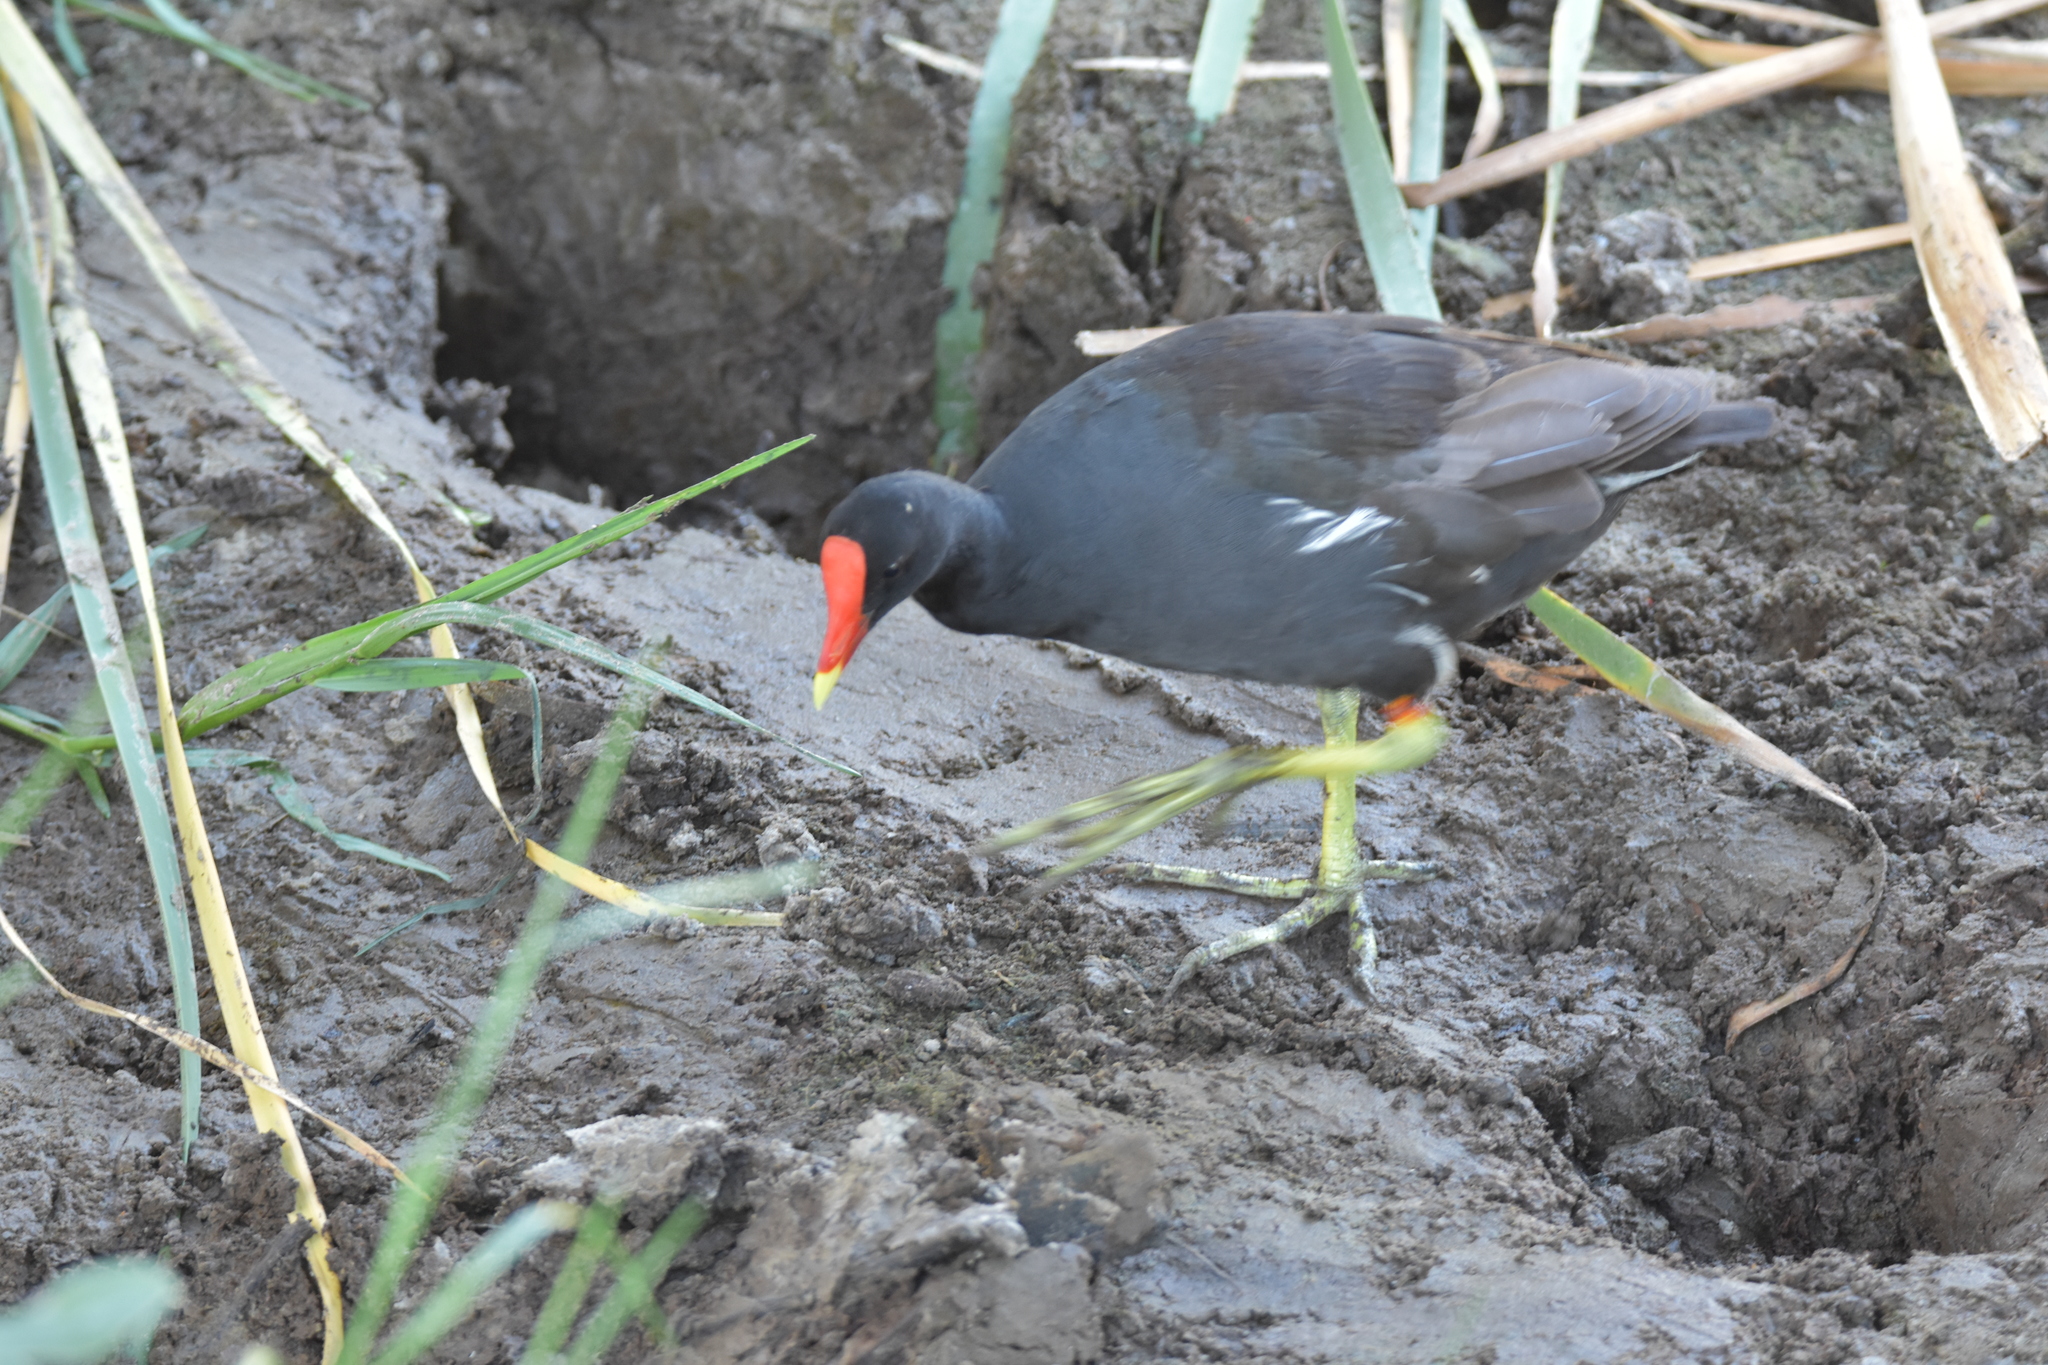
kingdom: Animalia
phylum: Chordata
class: Aves
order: Gruiformes
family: Rallidae
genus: Gallinula
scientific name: Gallinula chloropus
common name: Common moorhen
